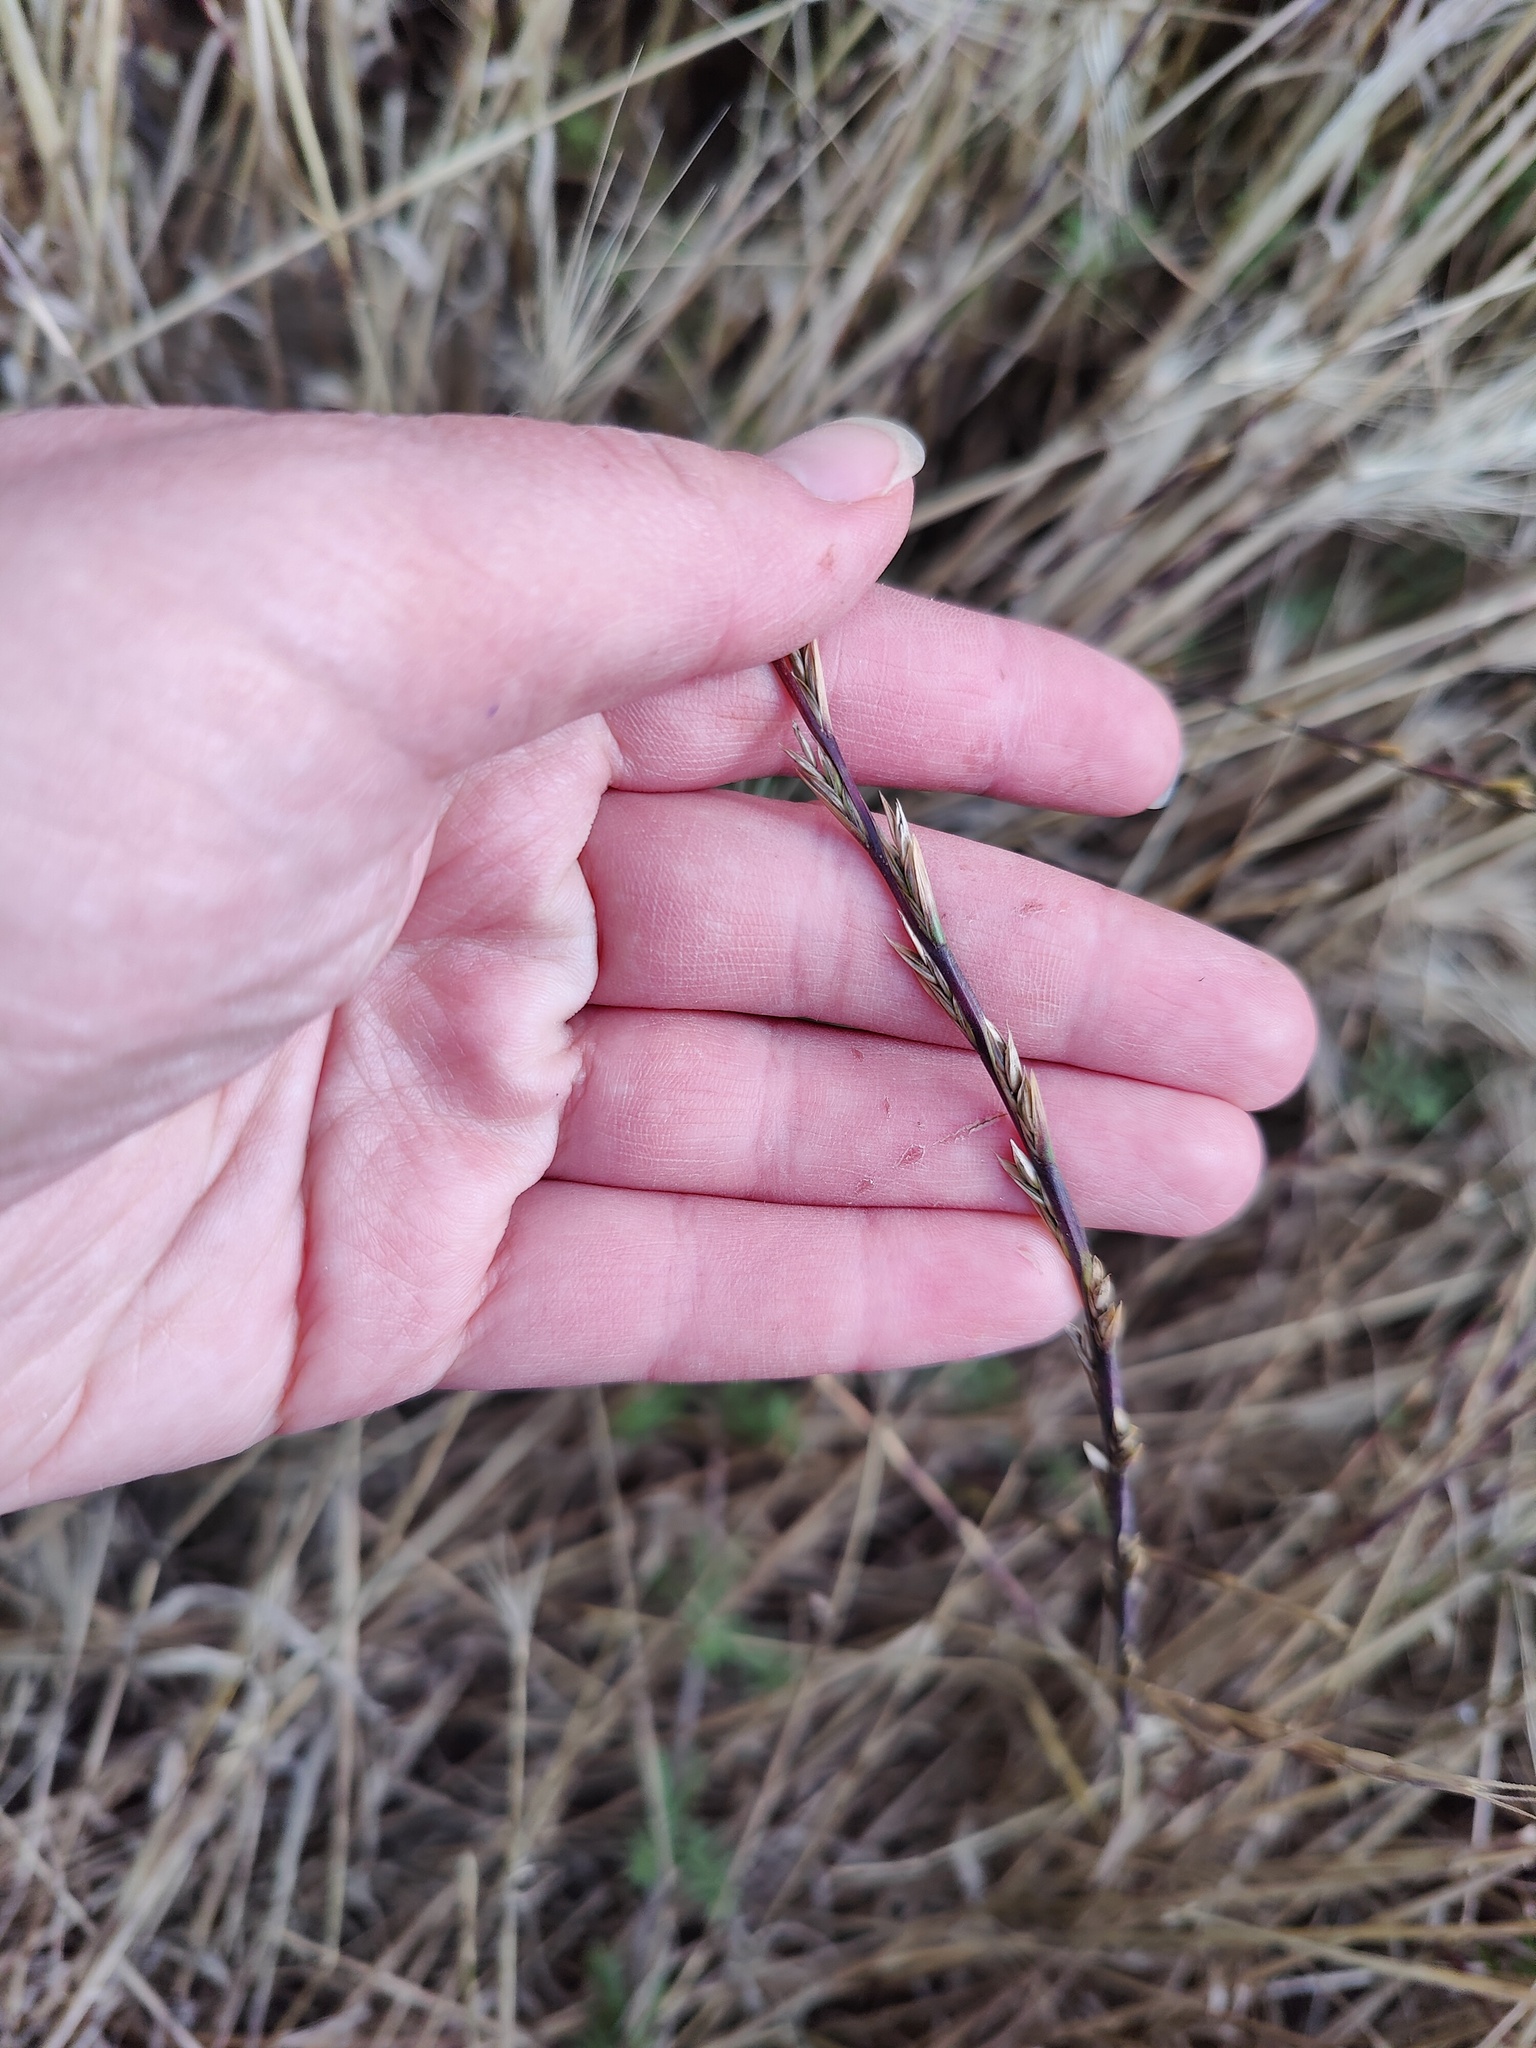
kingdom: Plantae
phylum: Tracheophyta
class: Liliopsida
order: Poales
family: Poaceae
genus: Lolium
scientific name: Lolium rigidum
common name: Wimmera ryegrass
